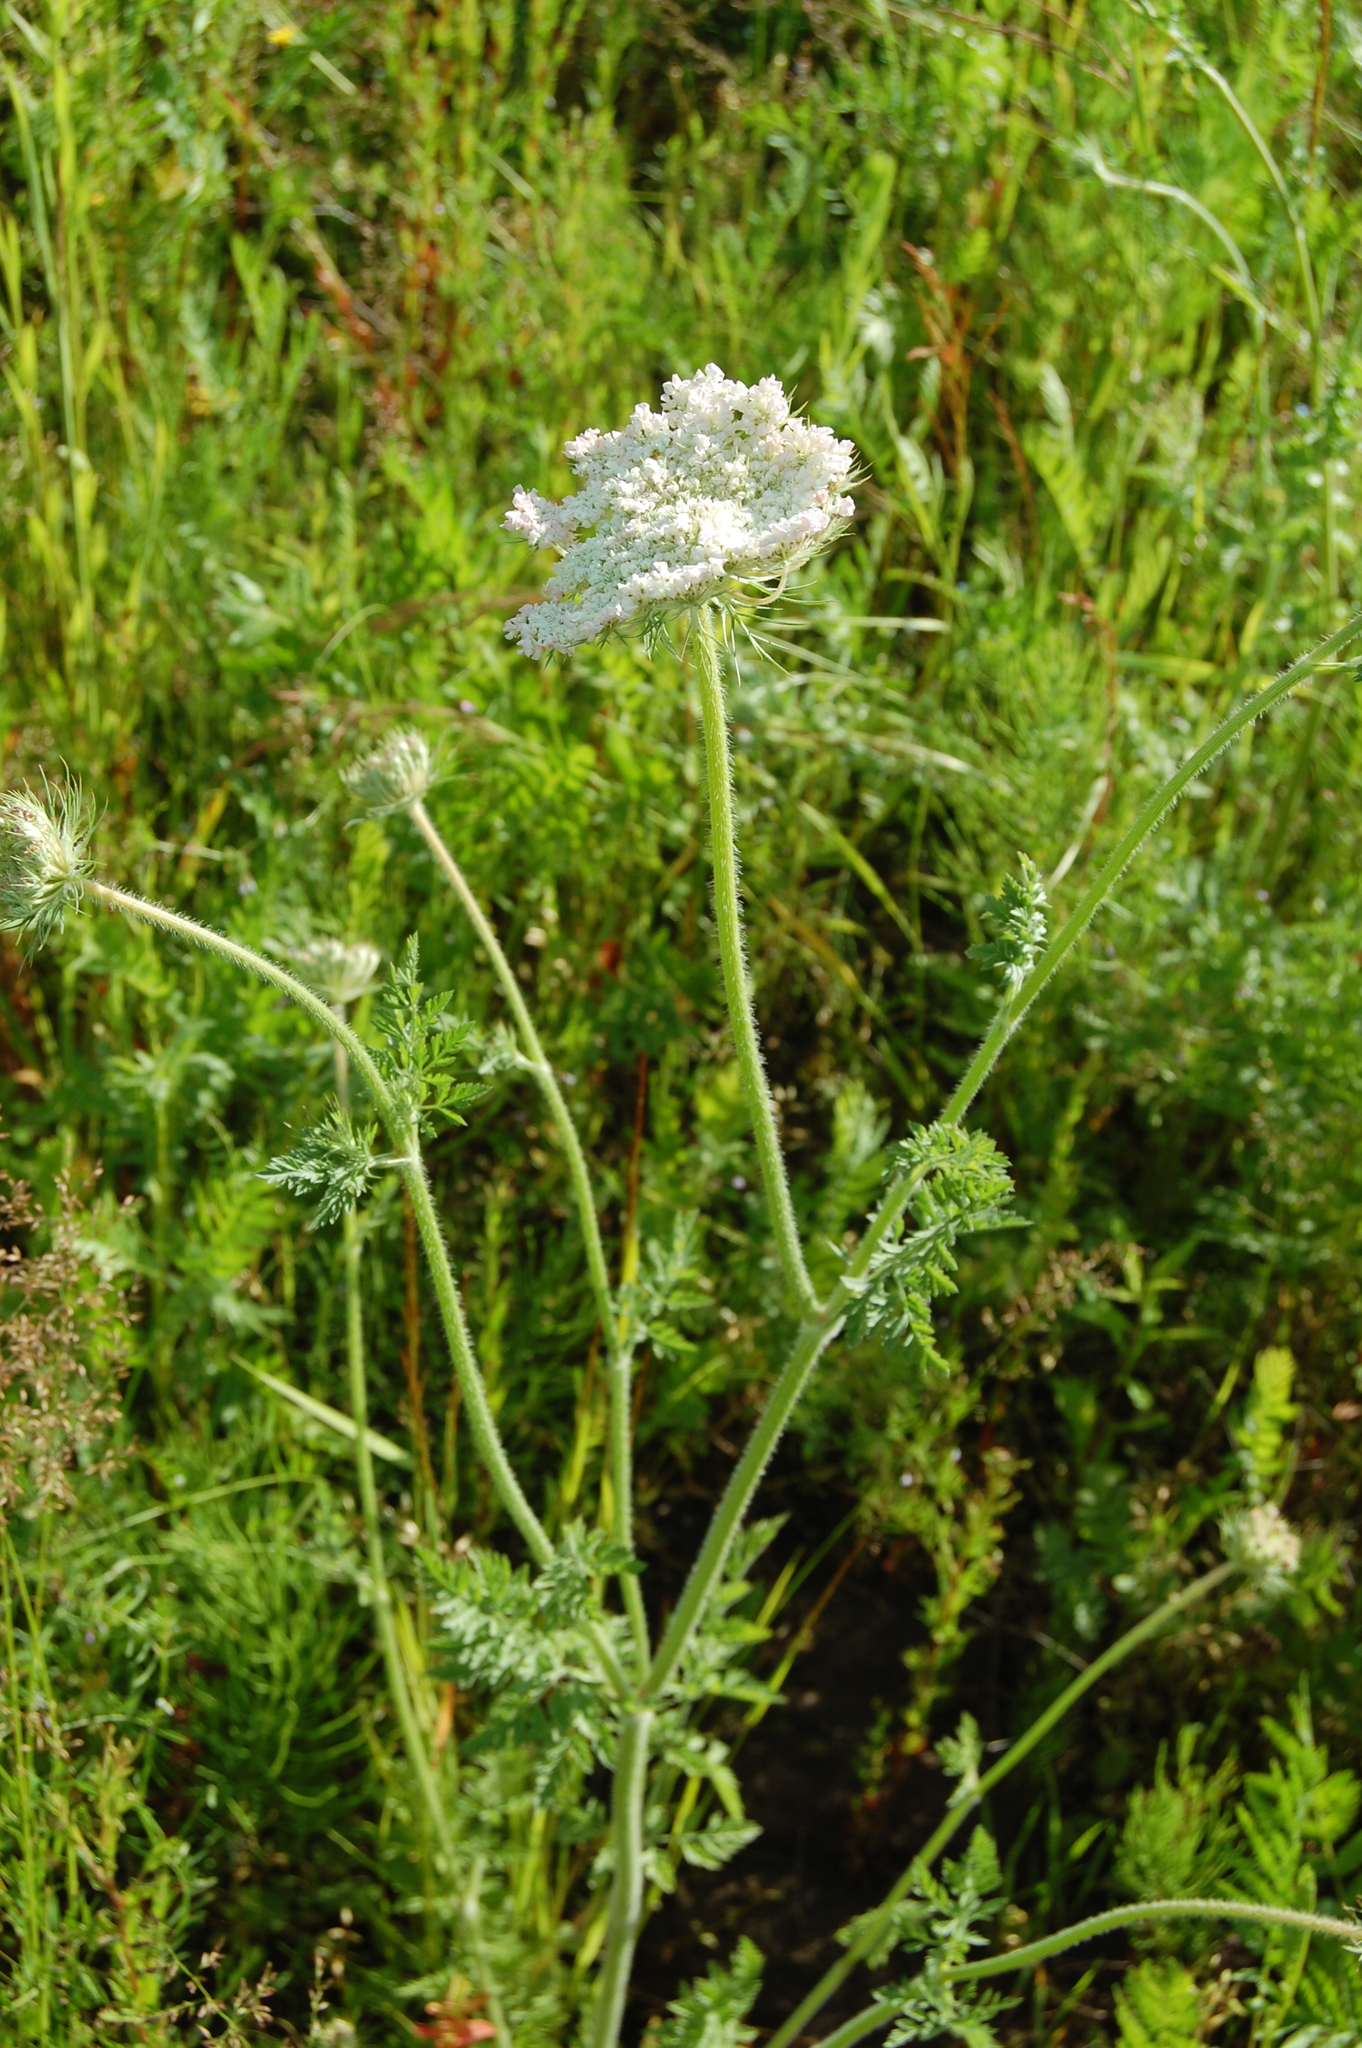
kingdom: Plantae
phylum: Tracheophyta
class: Magnoliopsida
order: Apiales
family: Apiaceae
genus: Daucus
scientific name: Daucus carota
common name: Wild carrot
